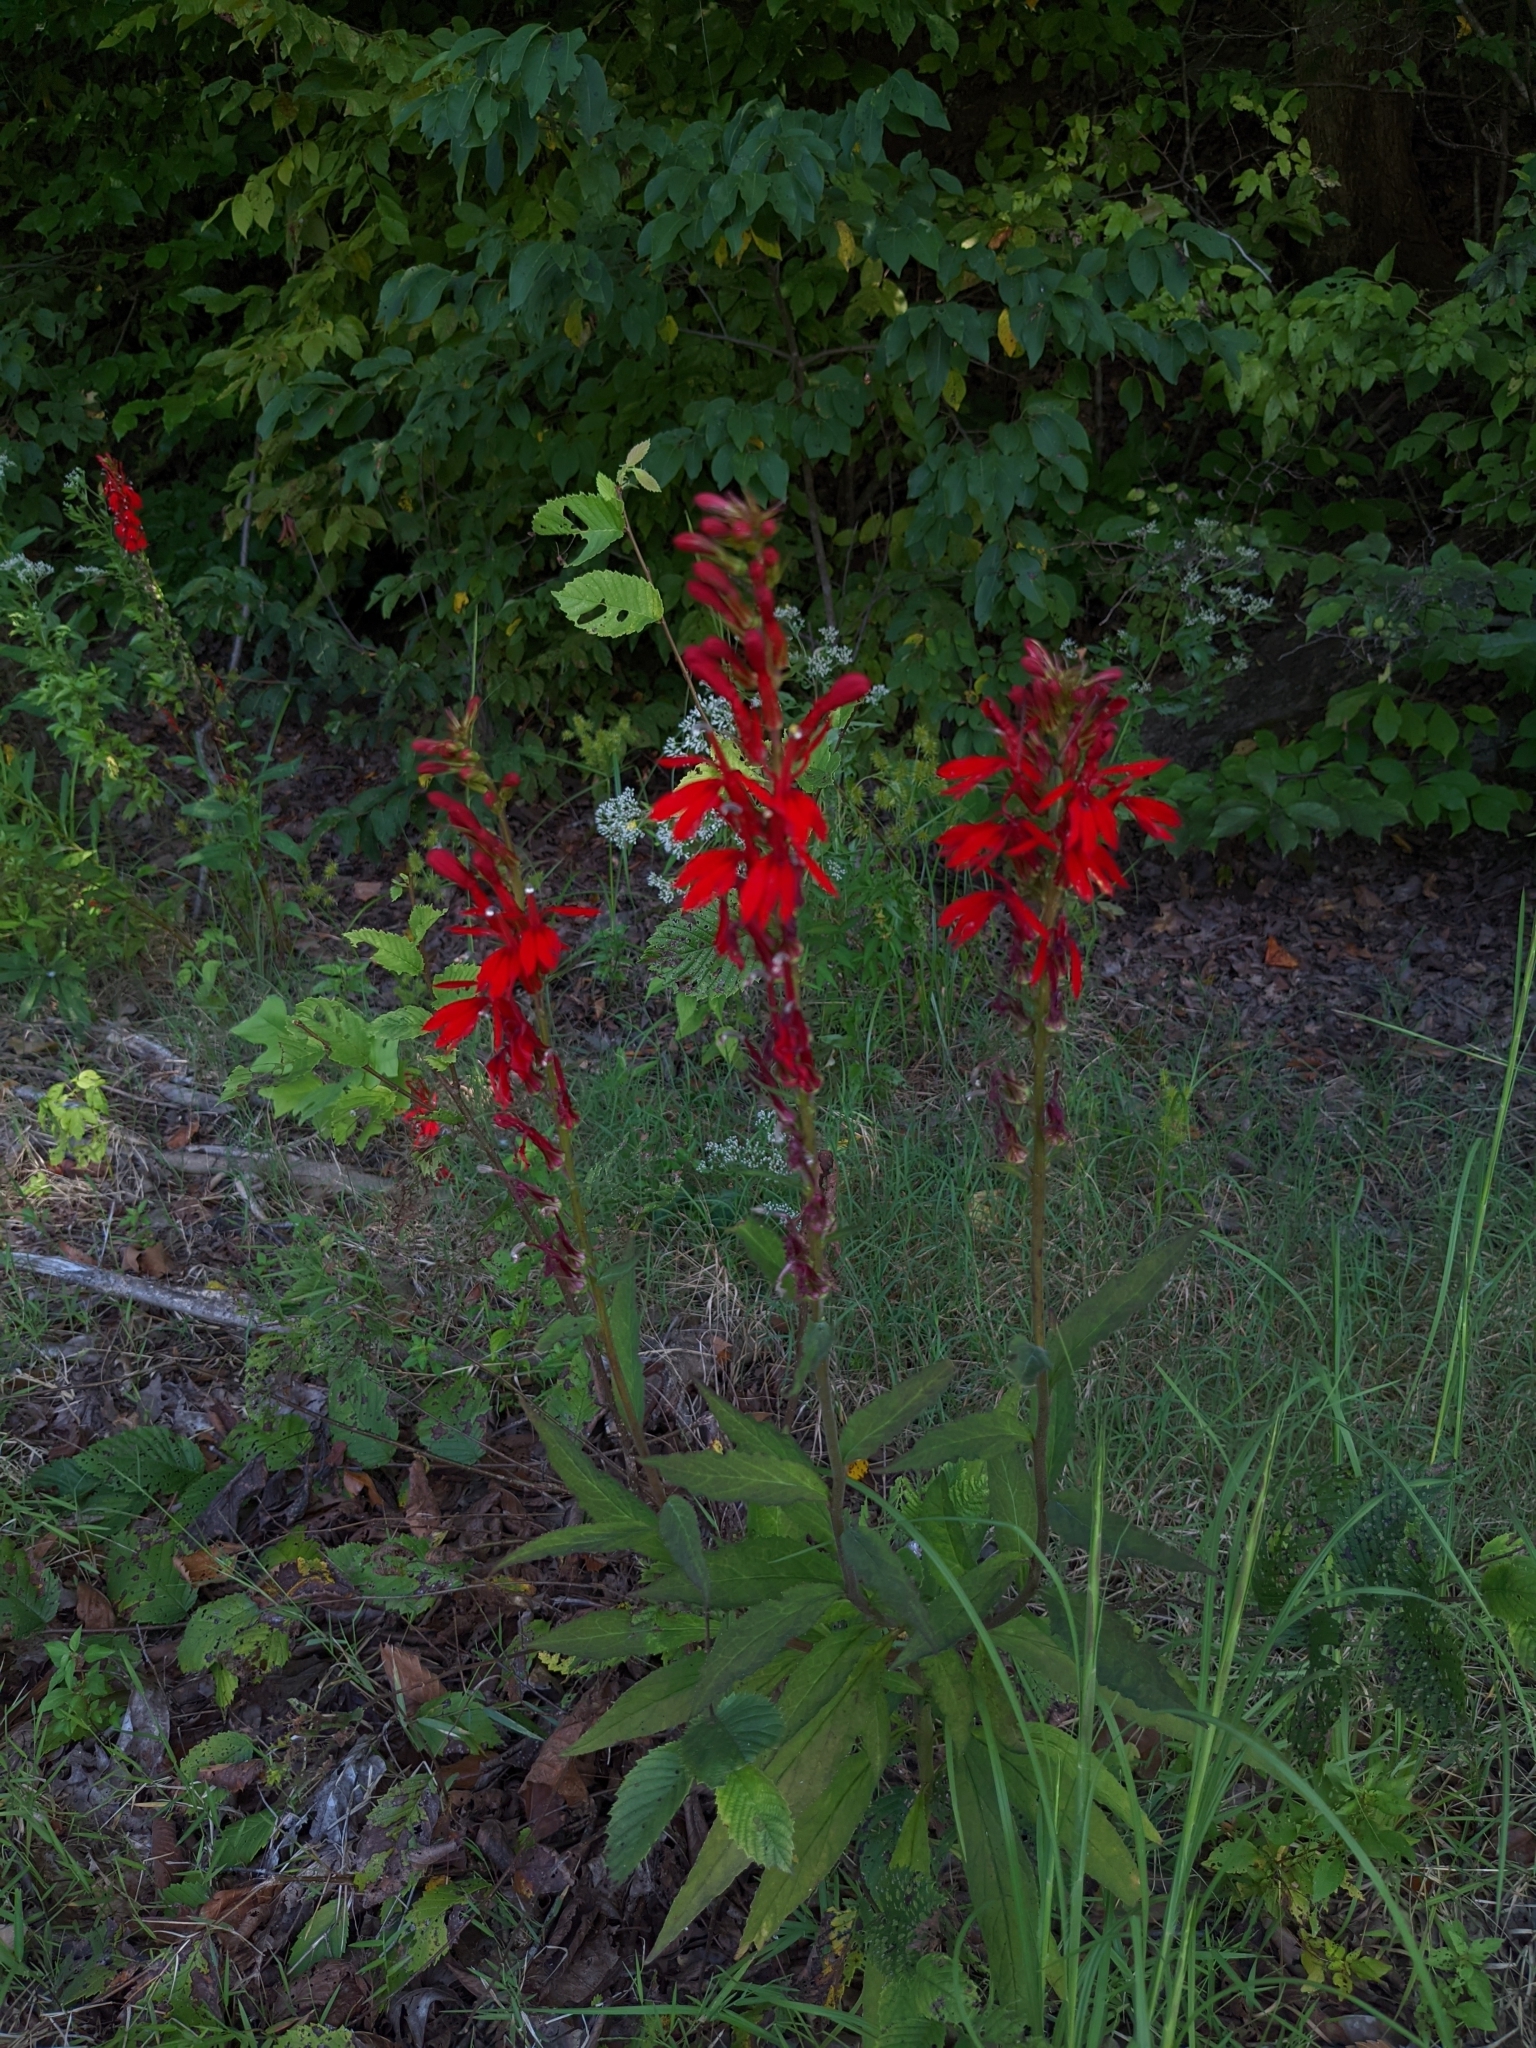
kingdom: Plantae
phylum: Tracheophyta
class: Magnoliopsida
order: Asterales
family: Campanulaceae
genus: Lobelia
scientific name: Lobelia cardinalis
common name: Cardinal flower
